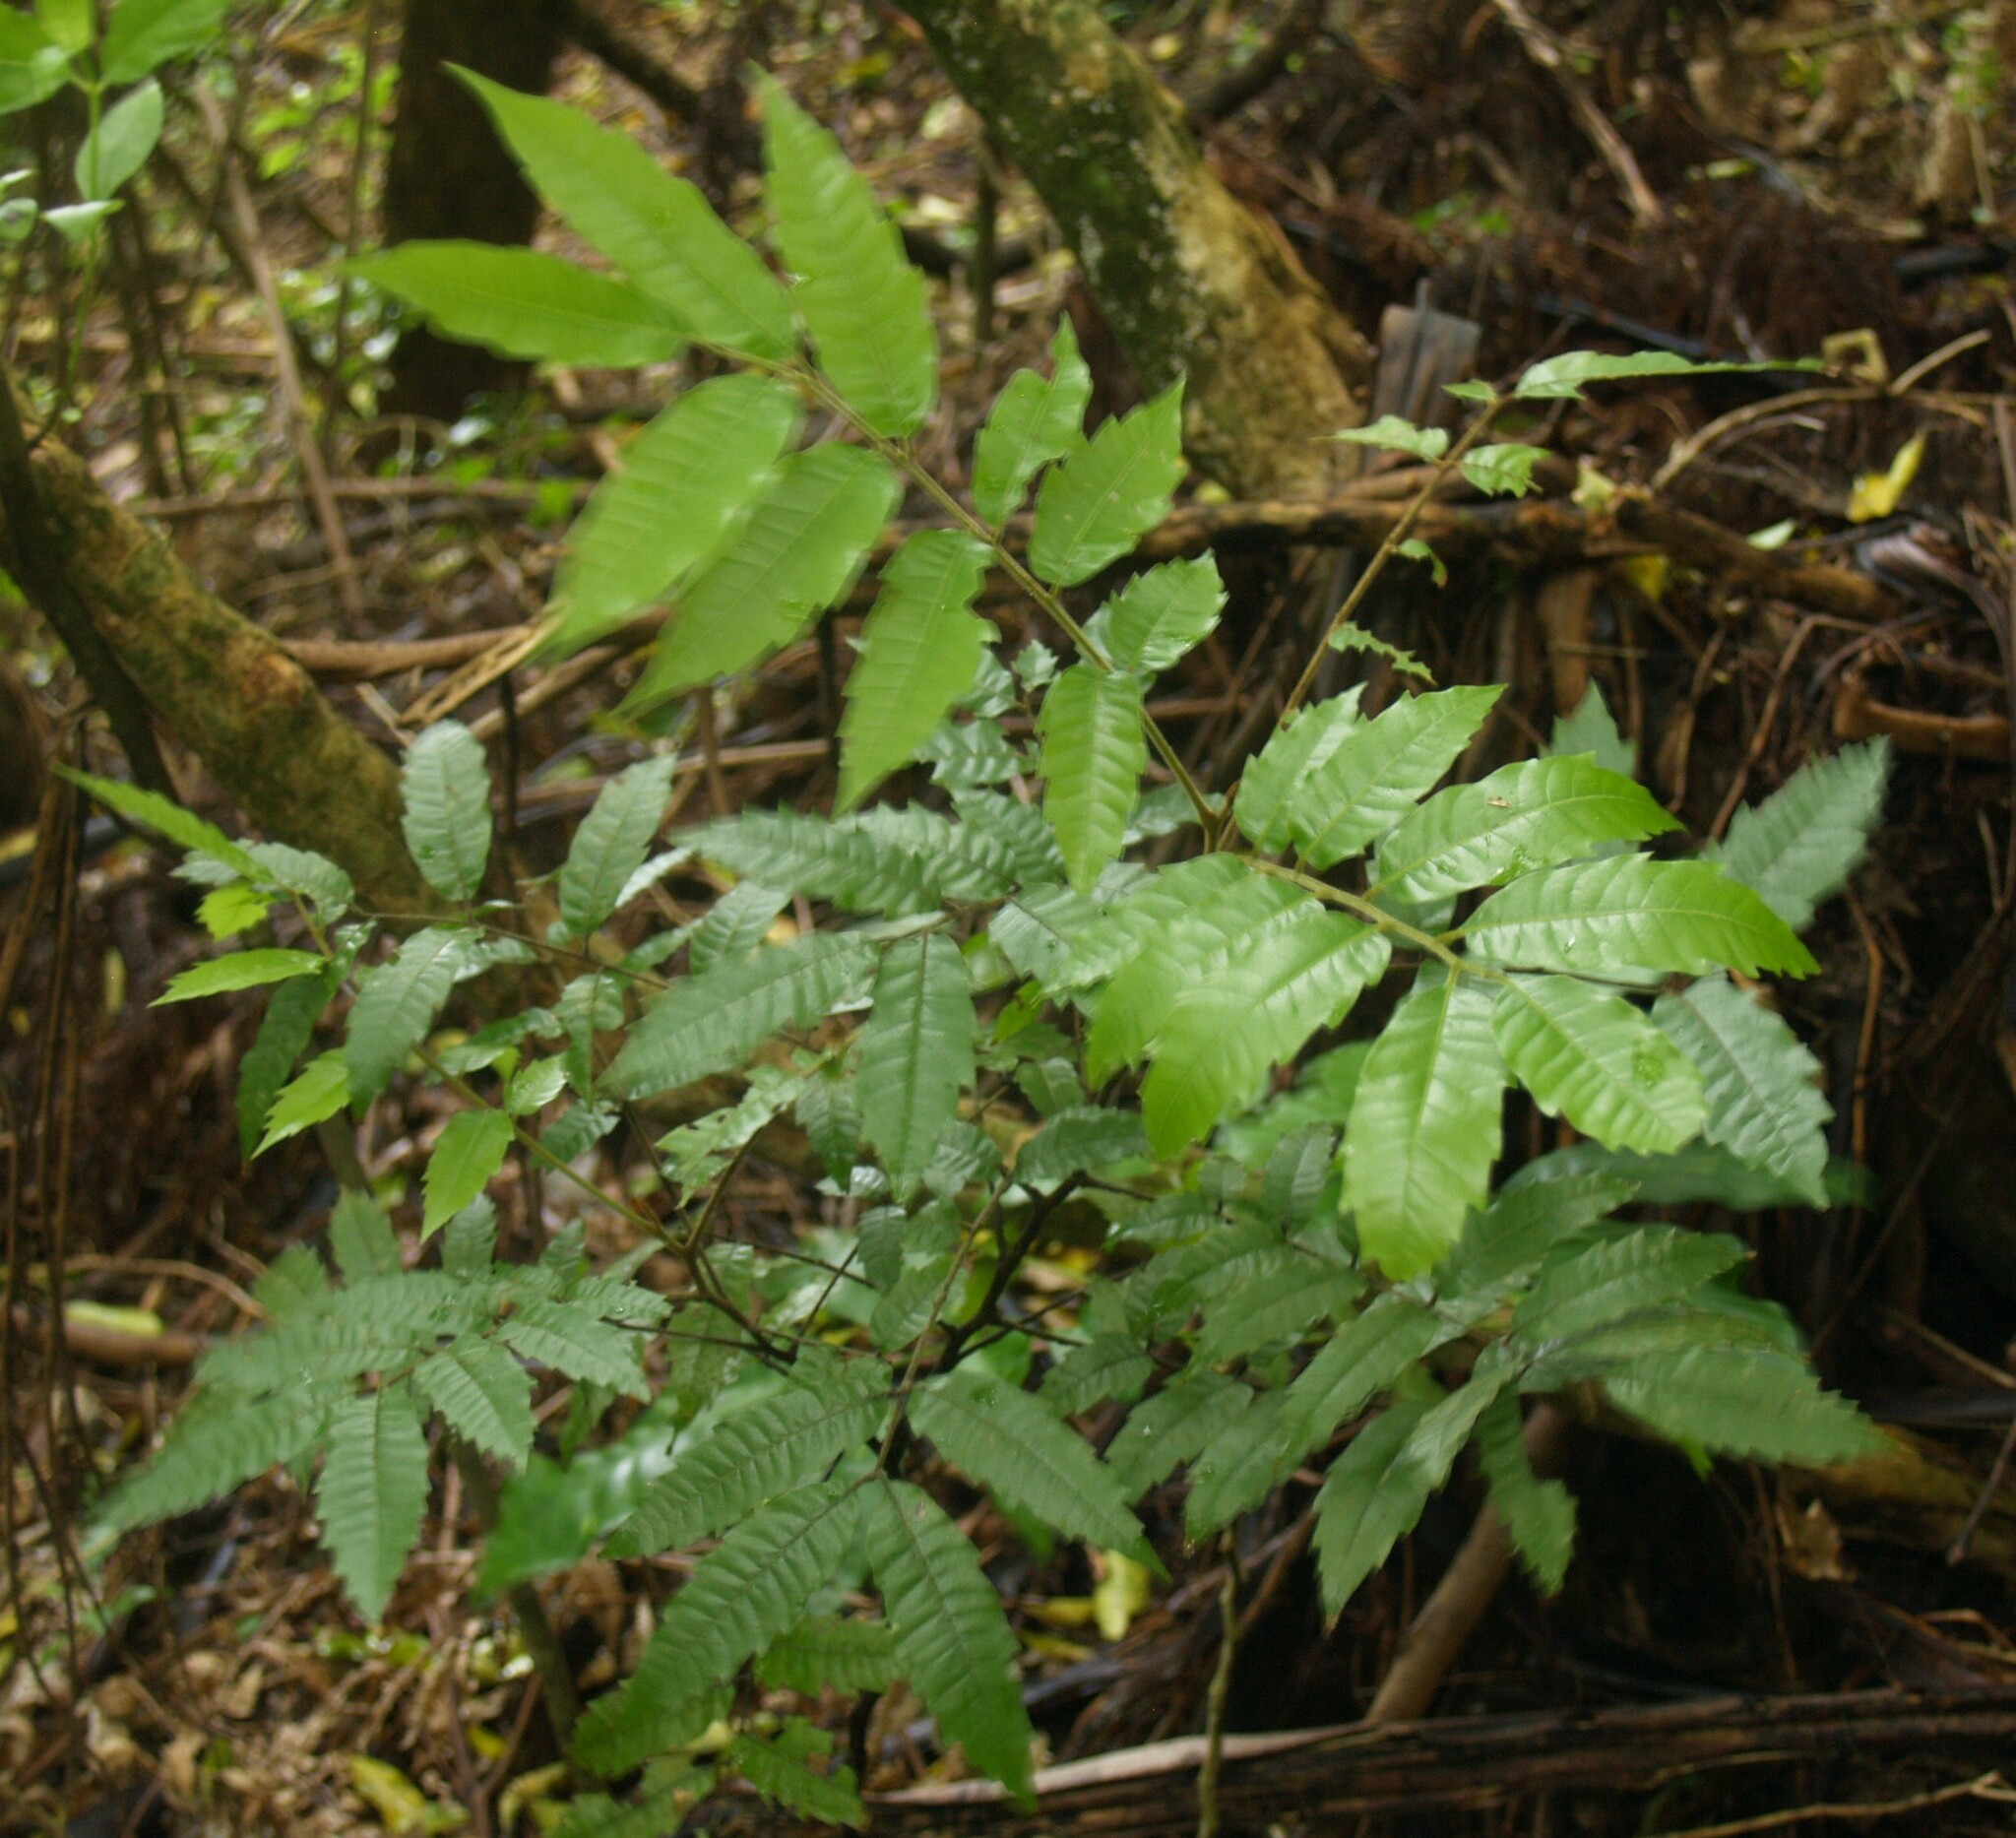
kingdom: Plantae
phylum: Tracheophyta
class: Magnoliopsida
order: Sapindales
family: Sapindaceae
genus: Alectryon
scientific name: Alectryon excelsus
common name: Three kings titoki
